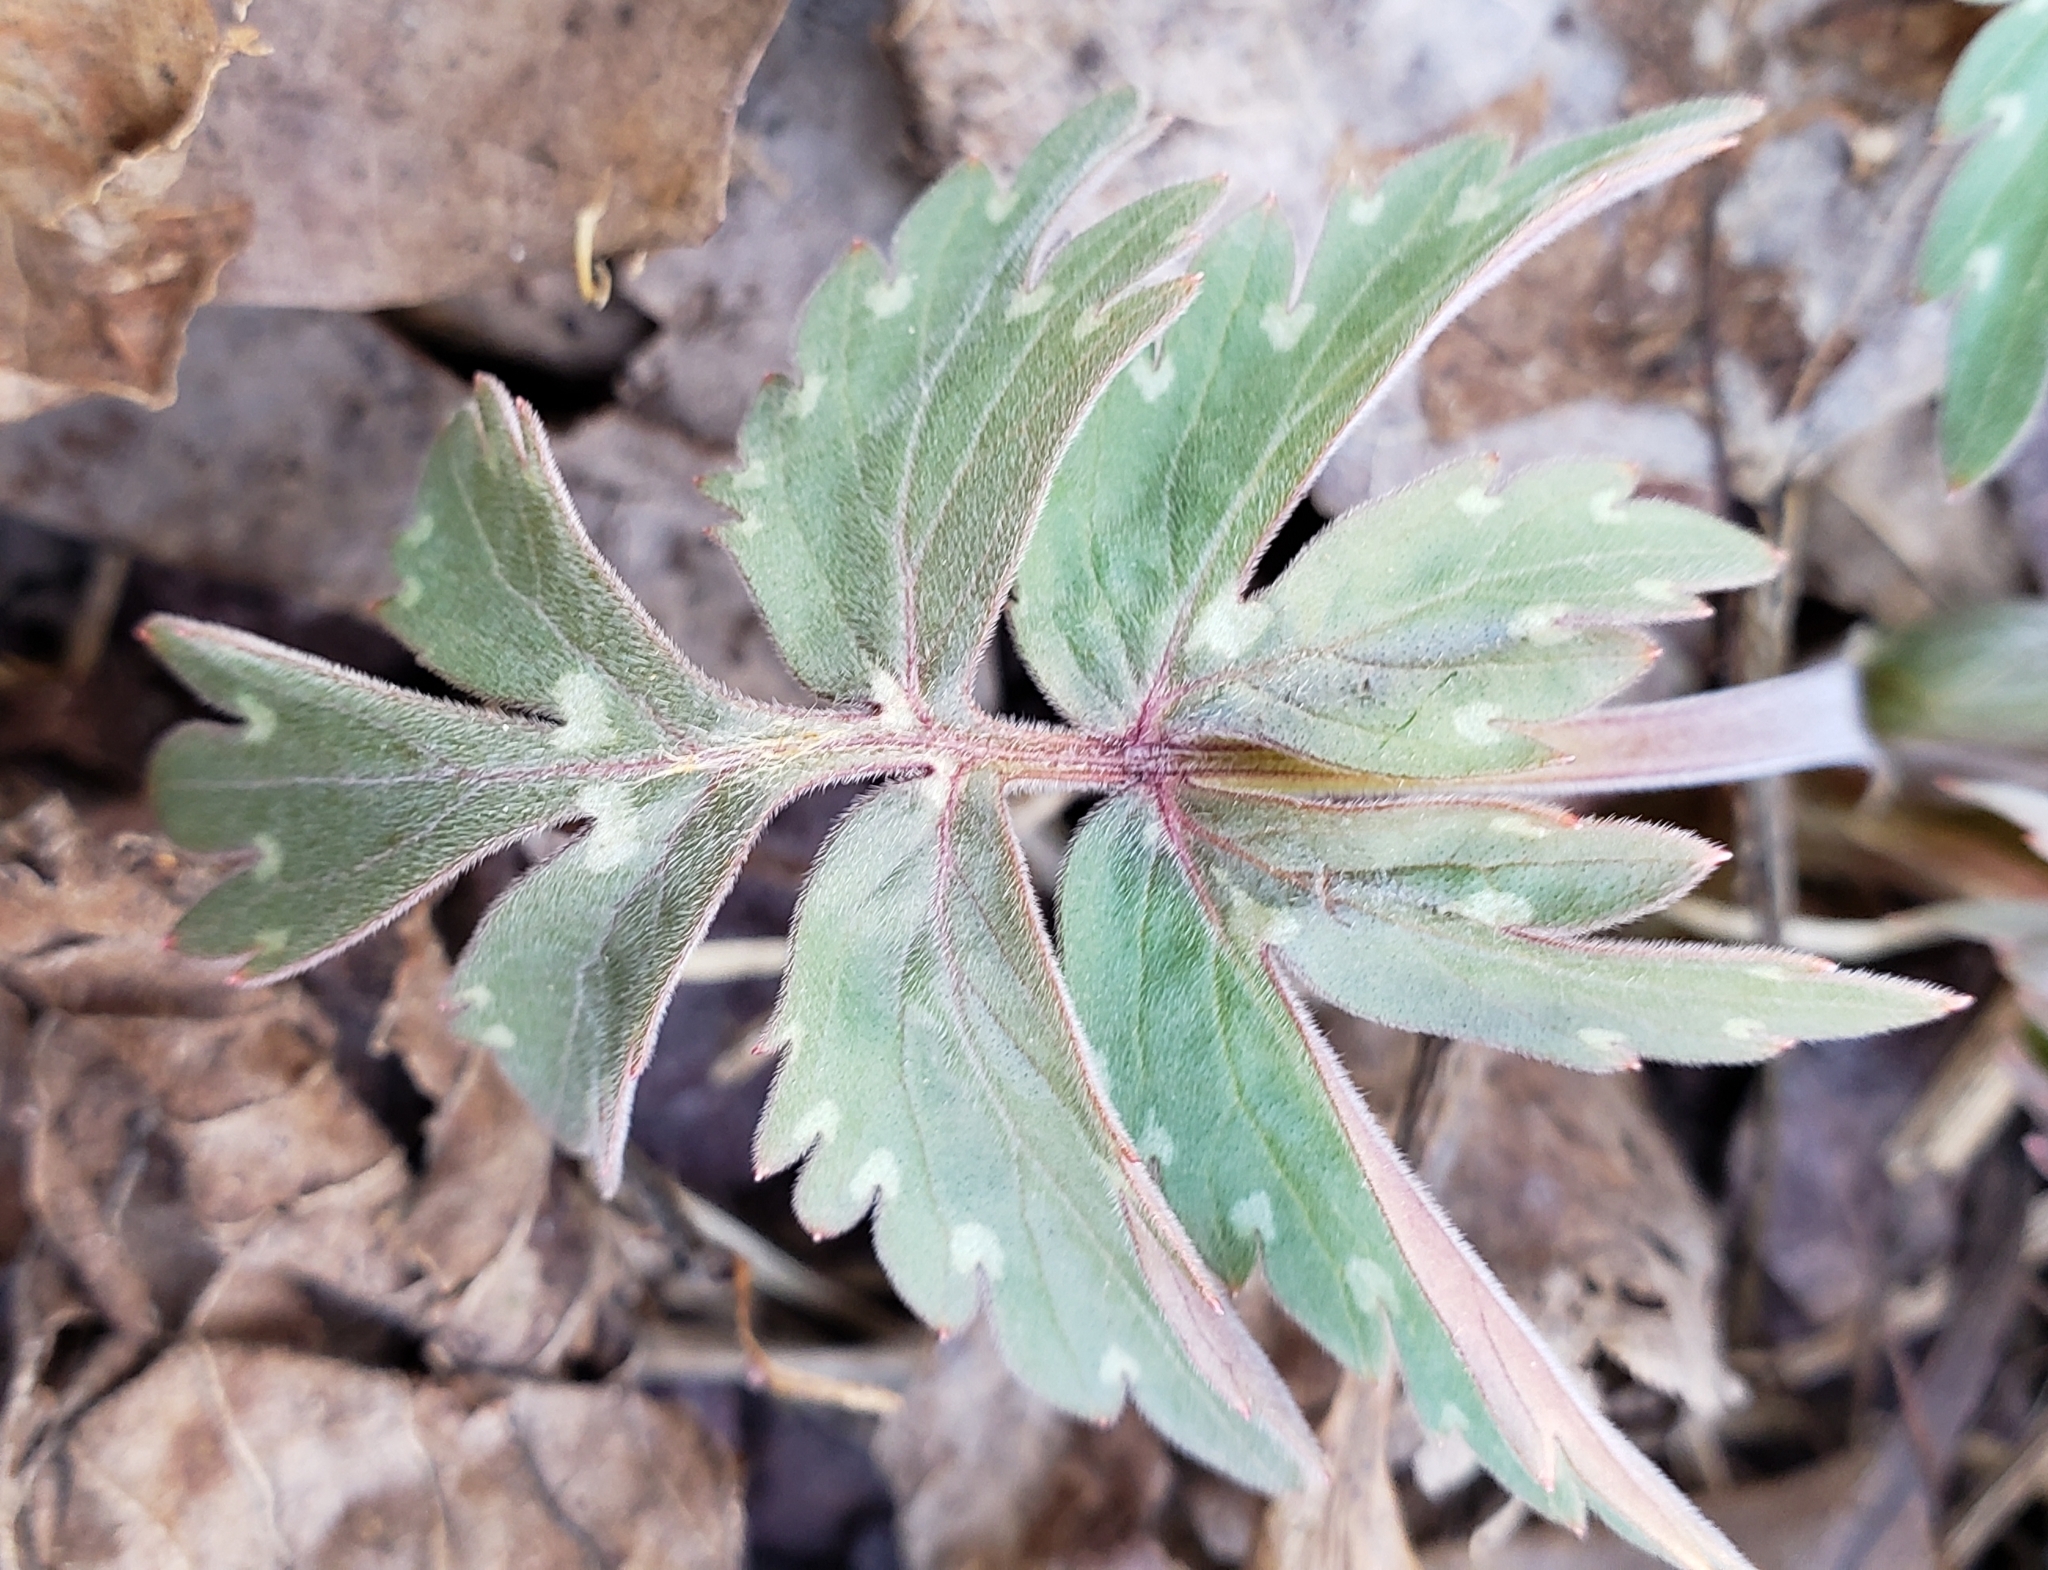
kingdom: Plantae
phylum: Tracheophyta
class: Magnoliopsida
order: Boraginales
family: Hydrophyllaceae
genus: Hydrophyllum
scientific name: Hydrophyllum virginianum
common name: Virginia waterleaf
